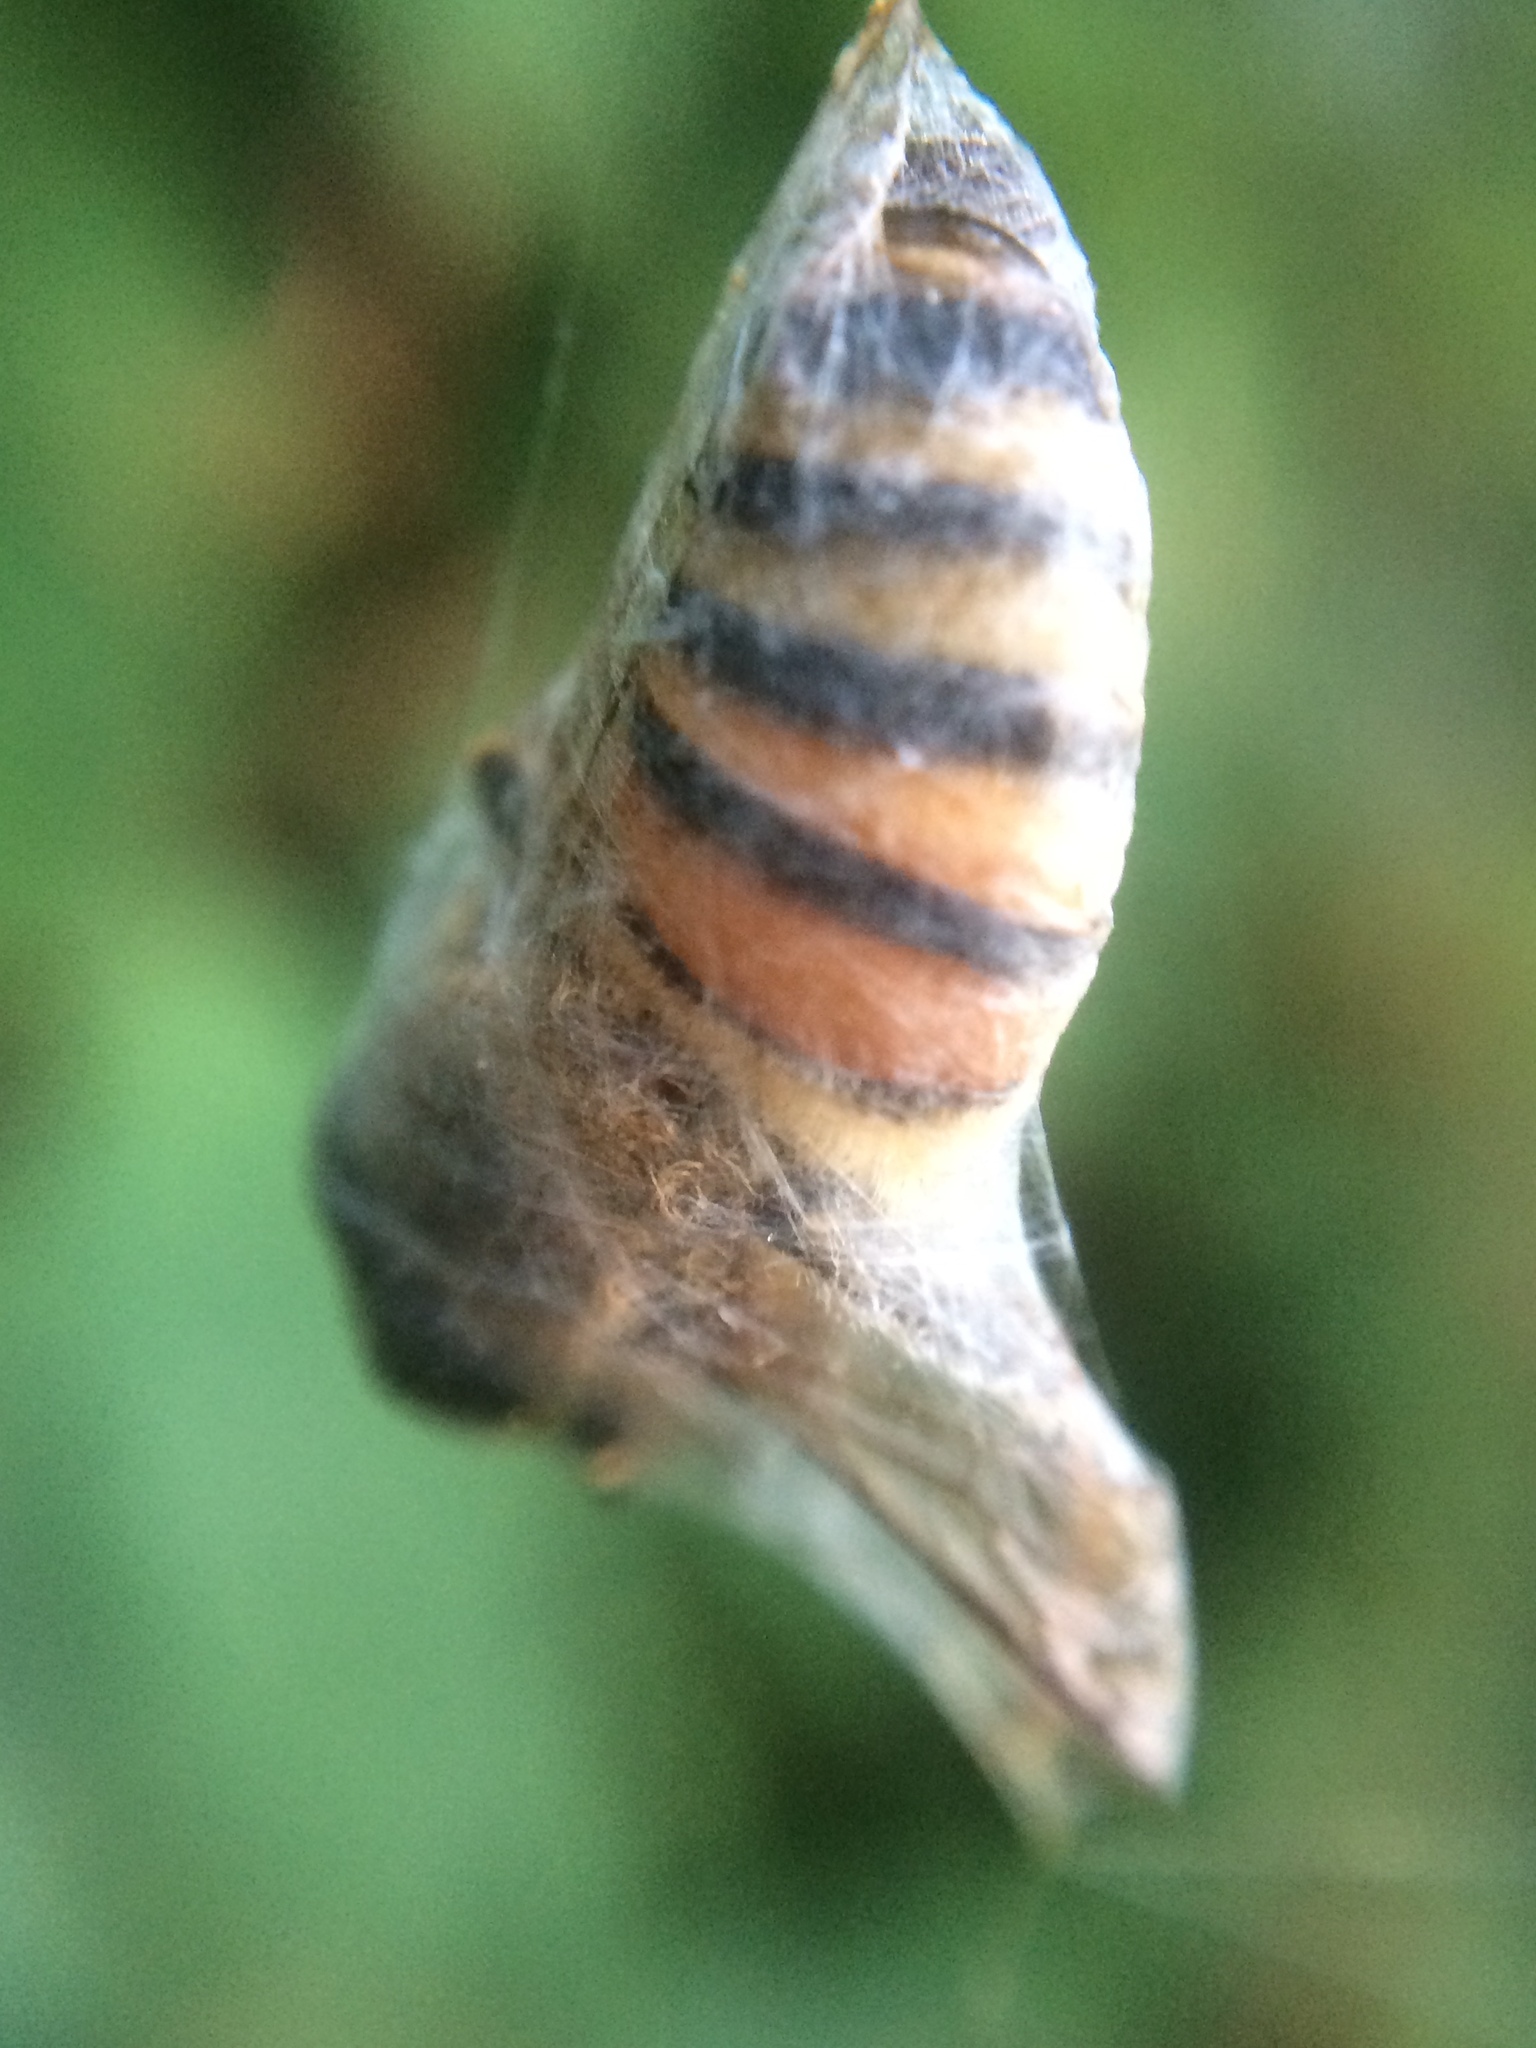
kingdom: Animalia
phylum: Arthropoda
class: Insecta
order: Hymenoptera
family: Apidae
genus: Apis
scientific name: Apis mellifera
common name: Honey bee
